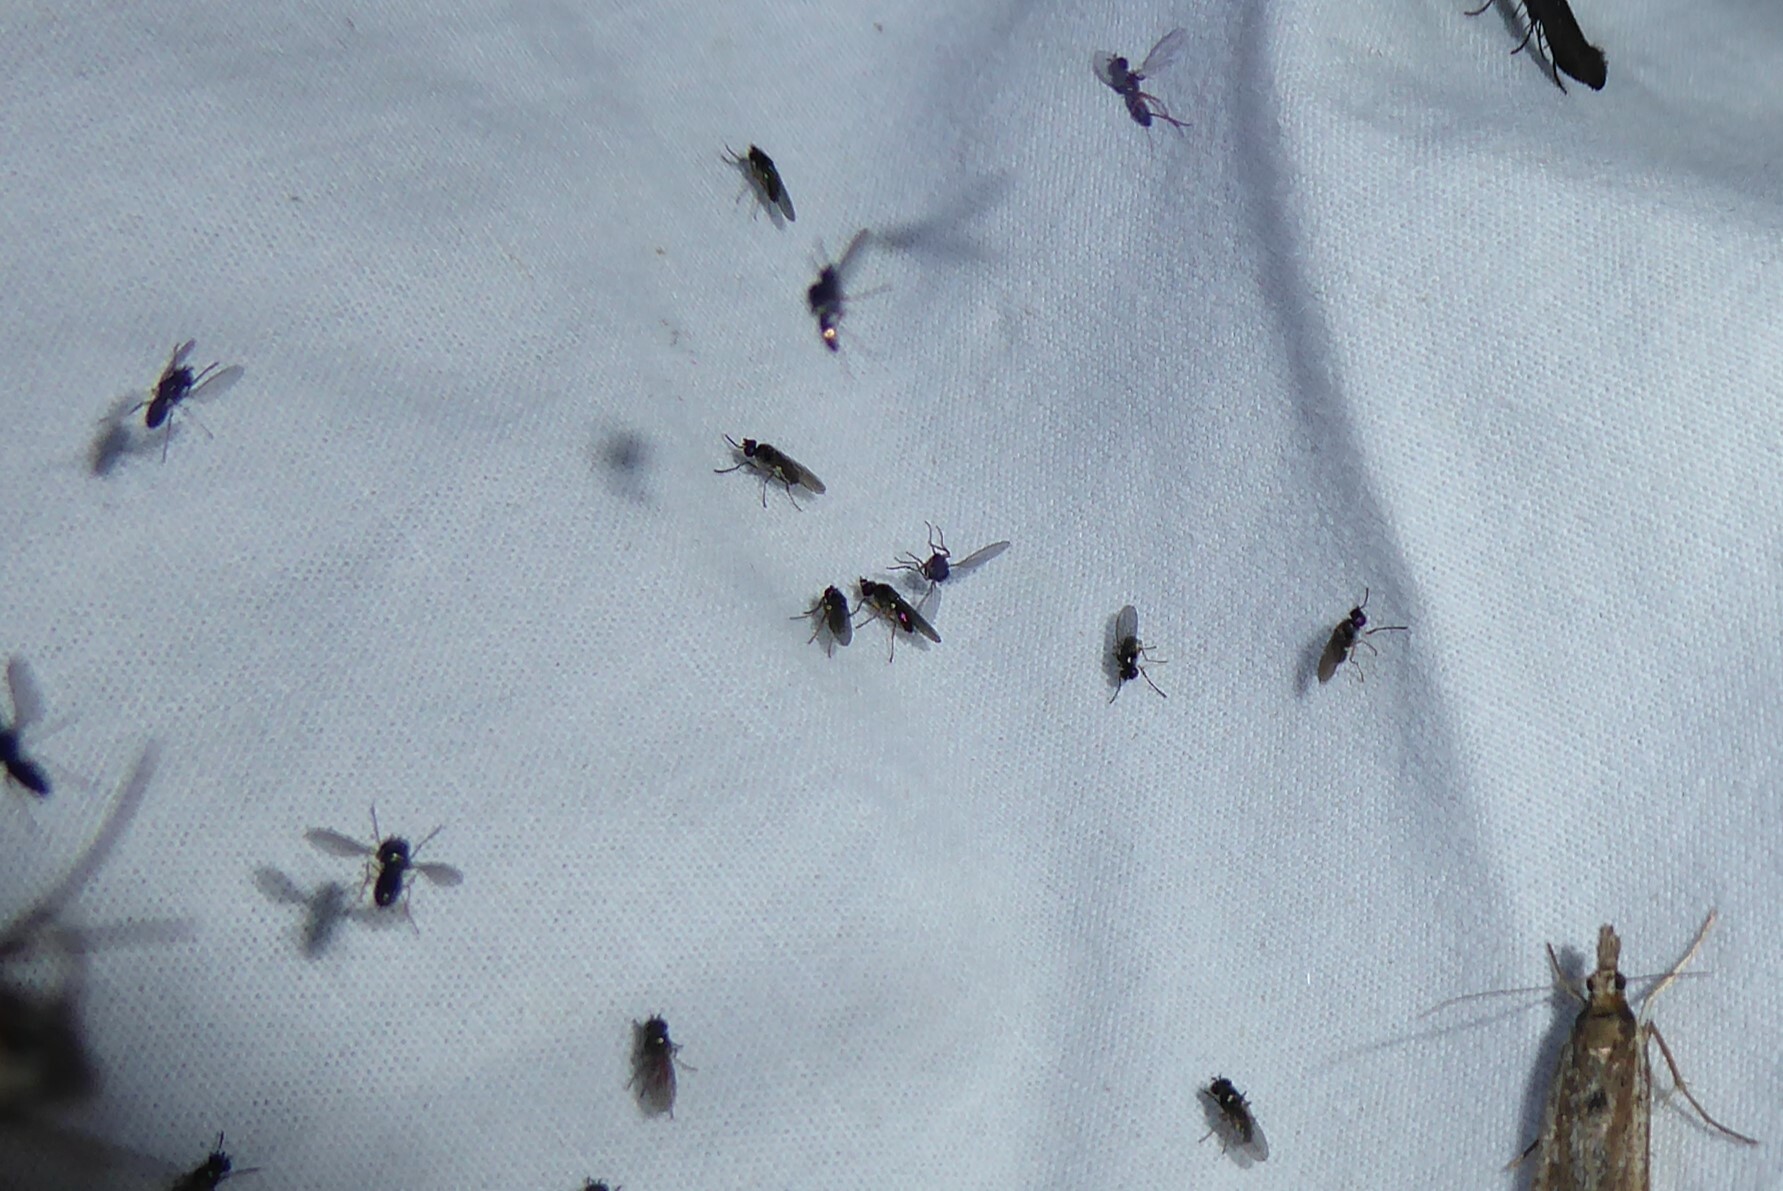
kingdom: Animalia
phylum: Arthropoda
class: Insecta
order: Diptera
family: Ephydridae
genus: Hydrellia
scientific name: Hydrellia tritici
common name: Shore fly
